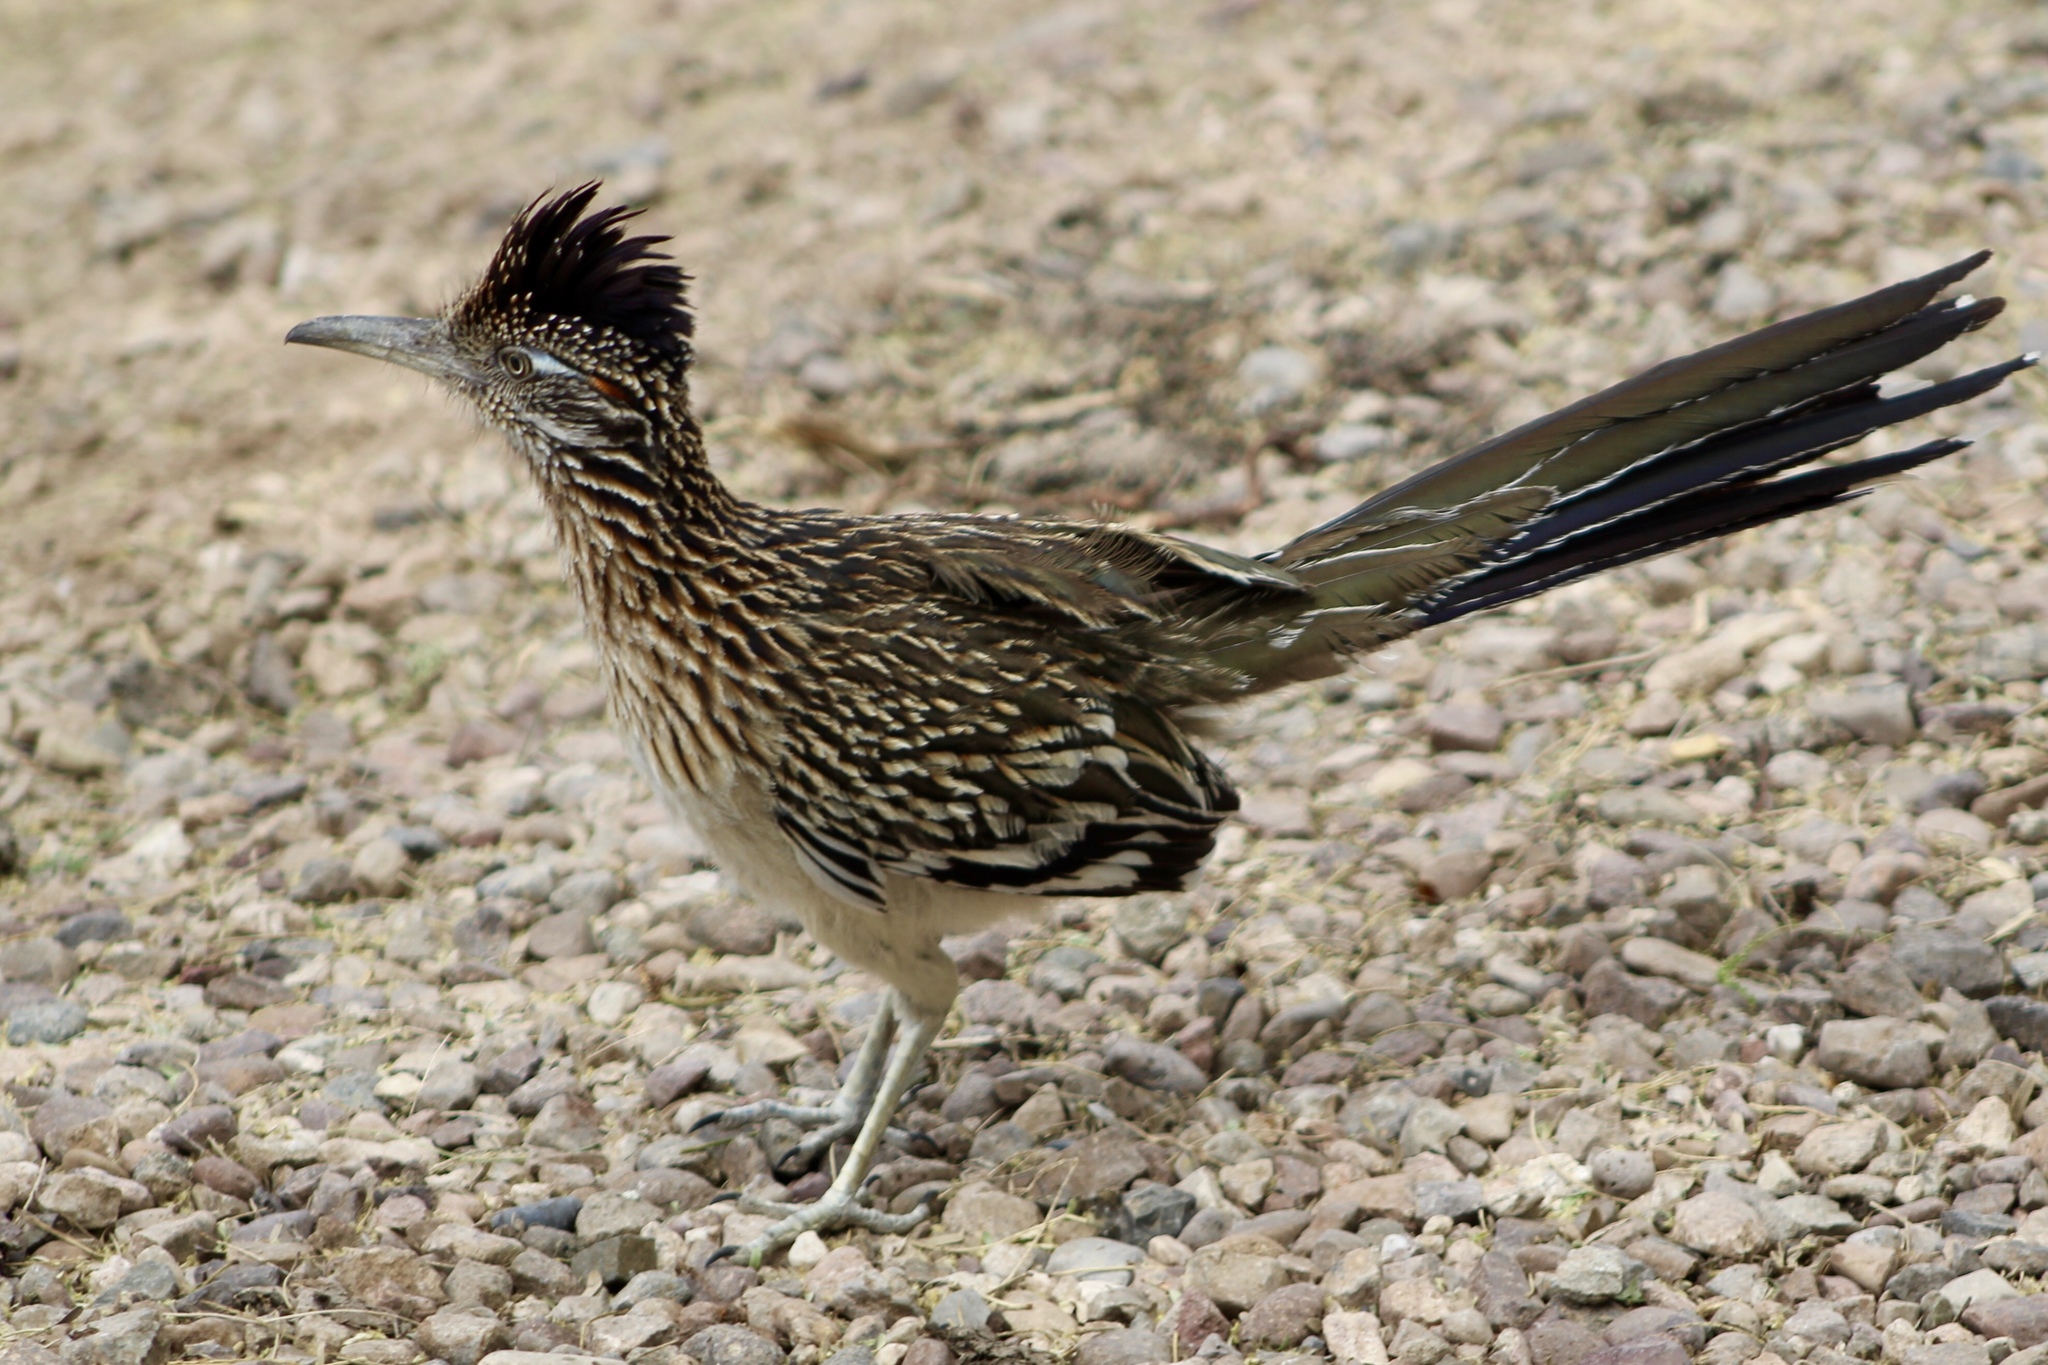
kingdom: Animalia
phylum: Chordata
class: Aves
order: Cuculiformes
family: Cuculidae
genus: Geococcyx
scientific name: Geococcyx californianus
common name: Greater roadrunner
